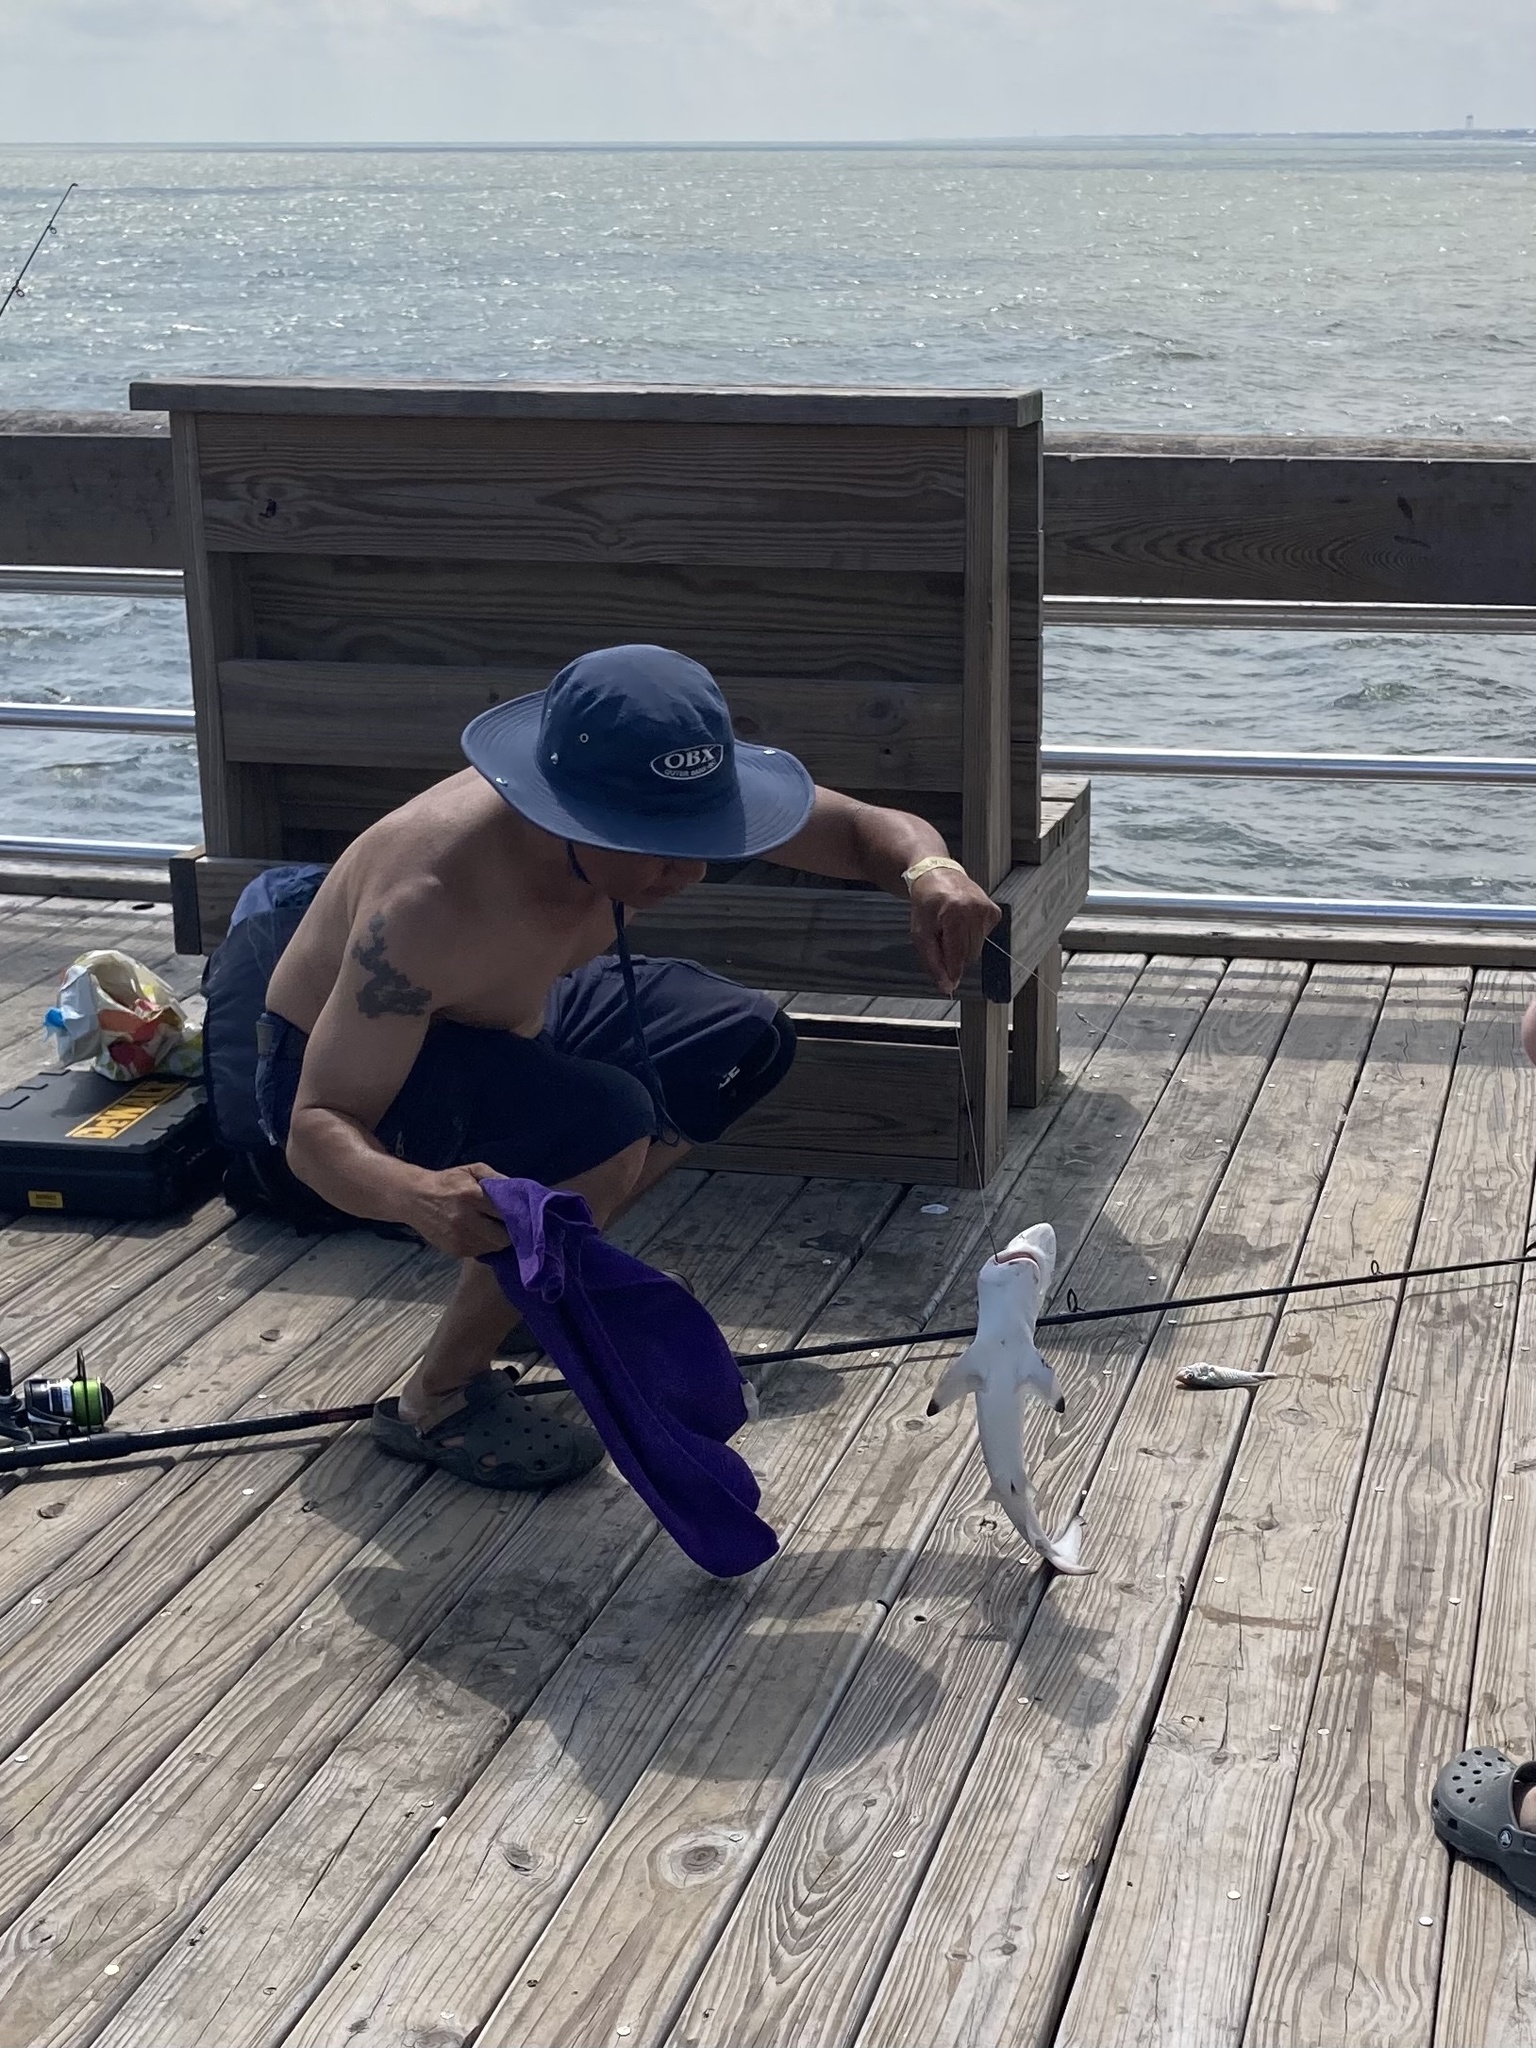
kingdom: Animalia
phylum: Chordata
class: Elasmobranchii
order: Carcharhiniformes
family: Carcharhinidae
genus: Carcharhinus
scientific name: Carcharhinus limbatus
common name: Blacktip shark
